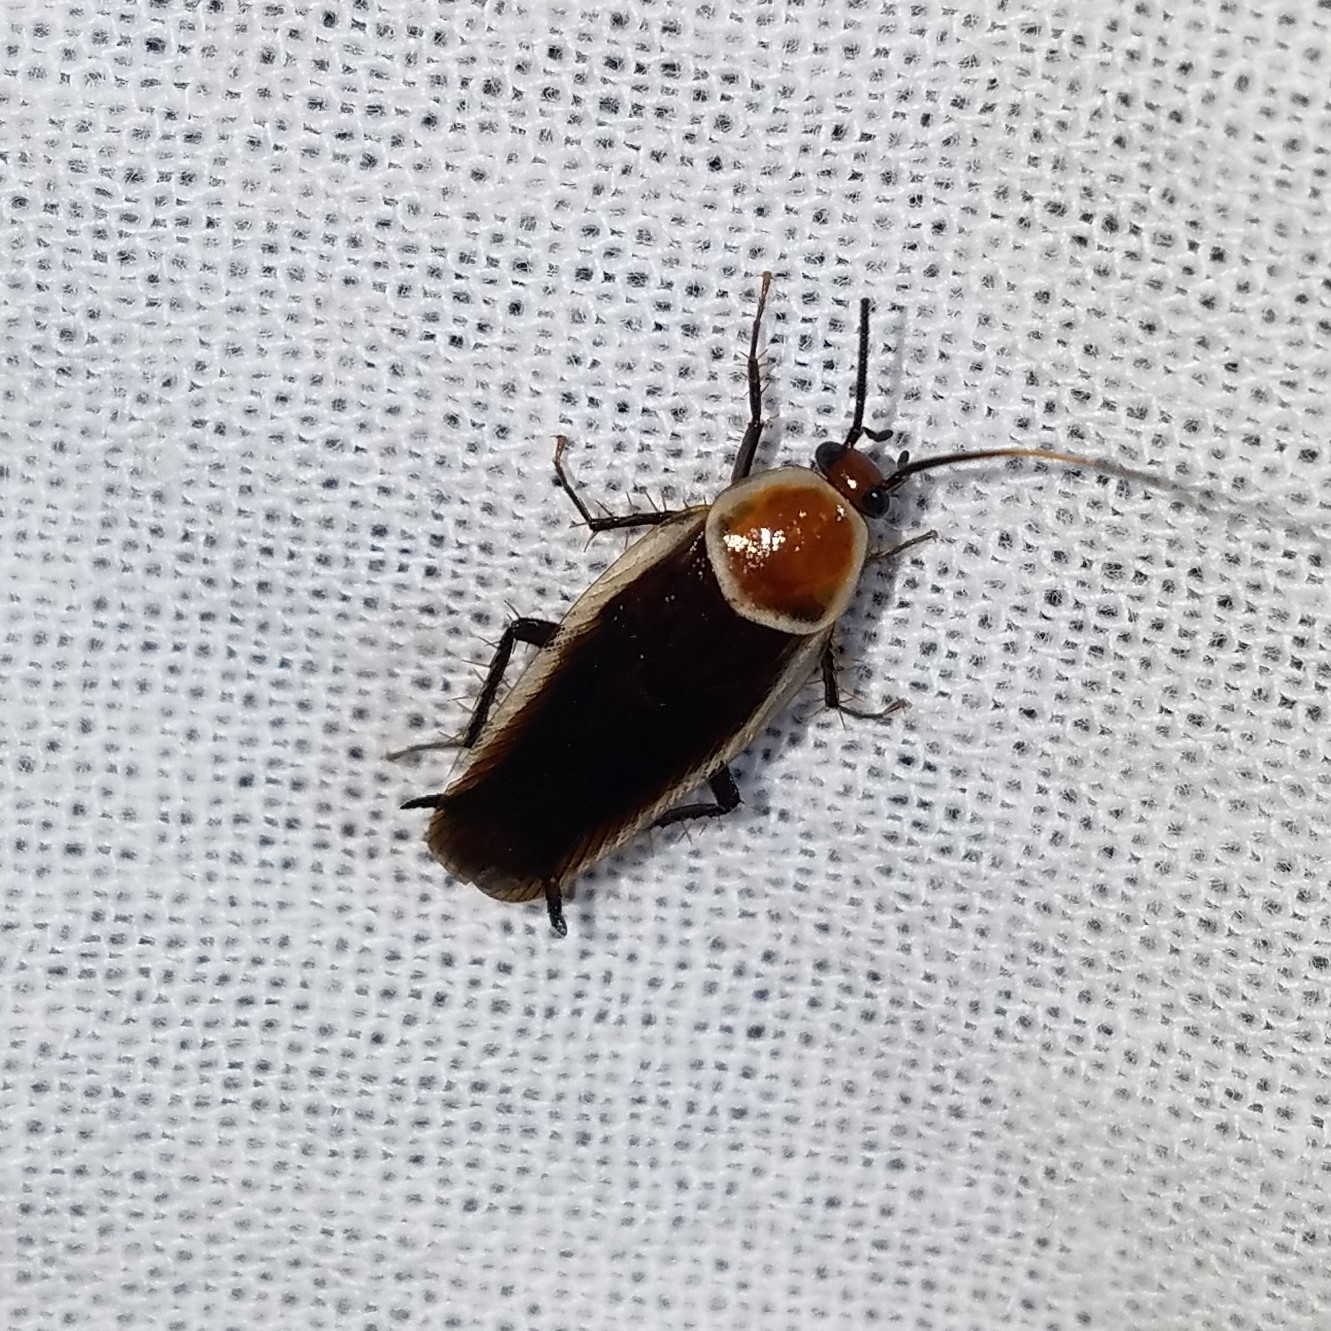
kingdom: Animalia
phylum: Arthropoda
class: Insecta
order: Blattodea
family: Ectobiidae
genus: Pseudomops
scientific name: Pseudomops septentrionalis
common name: Pale-bordered field cockroach
